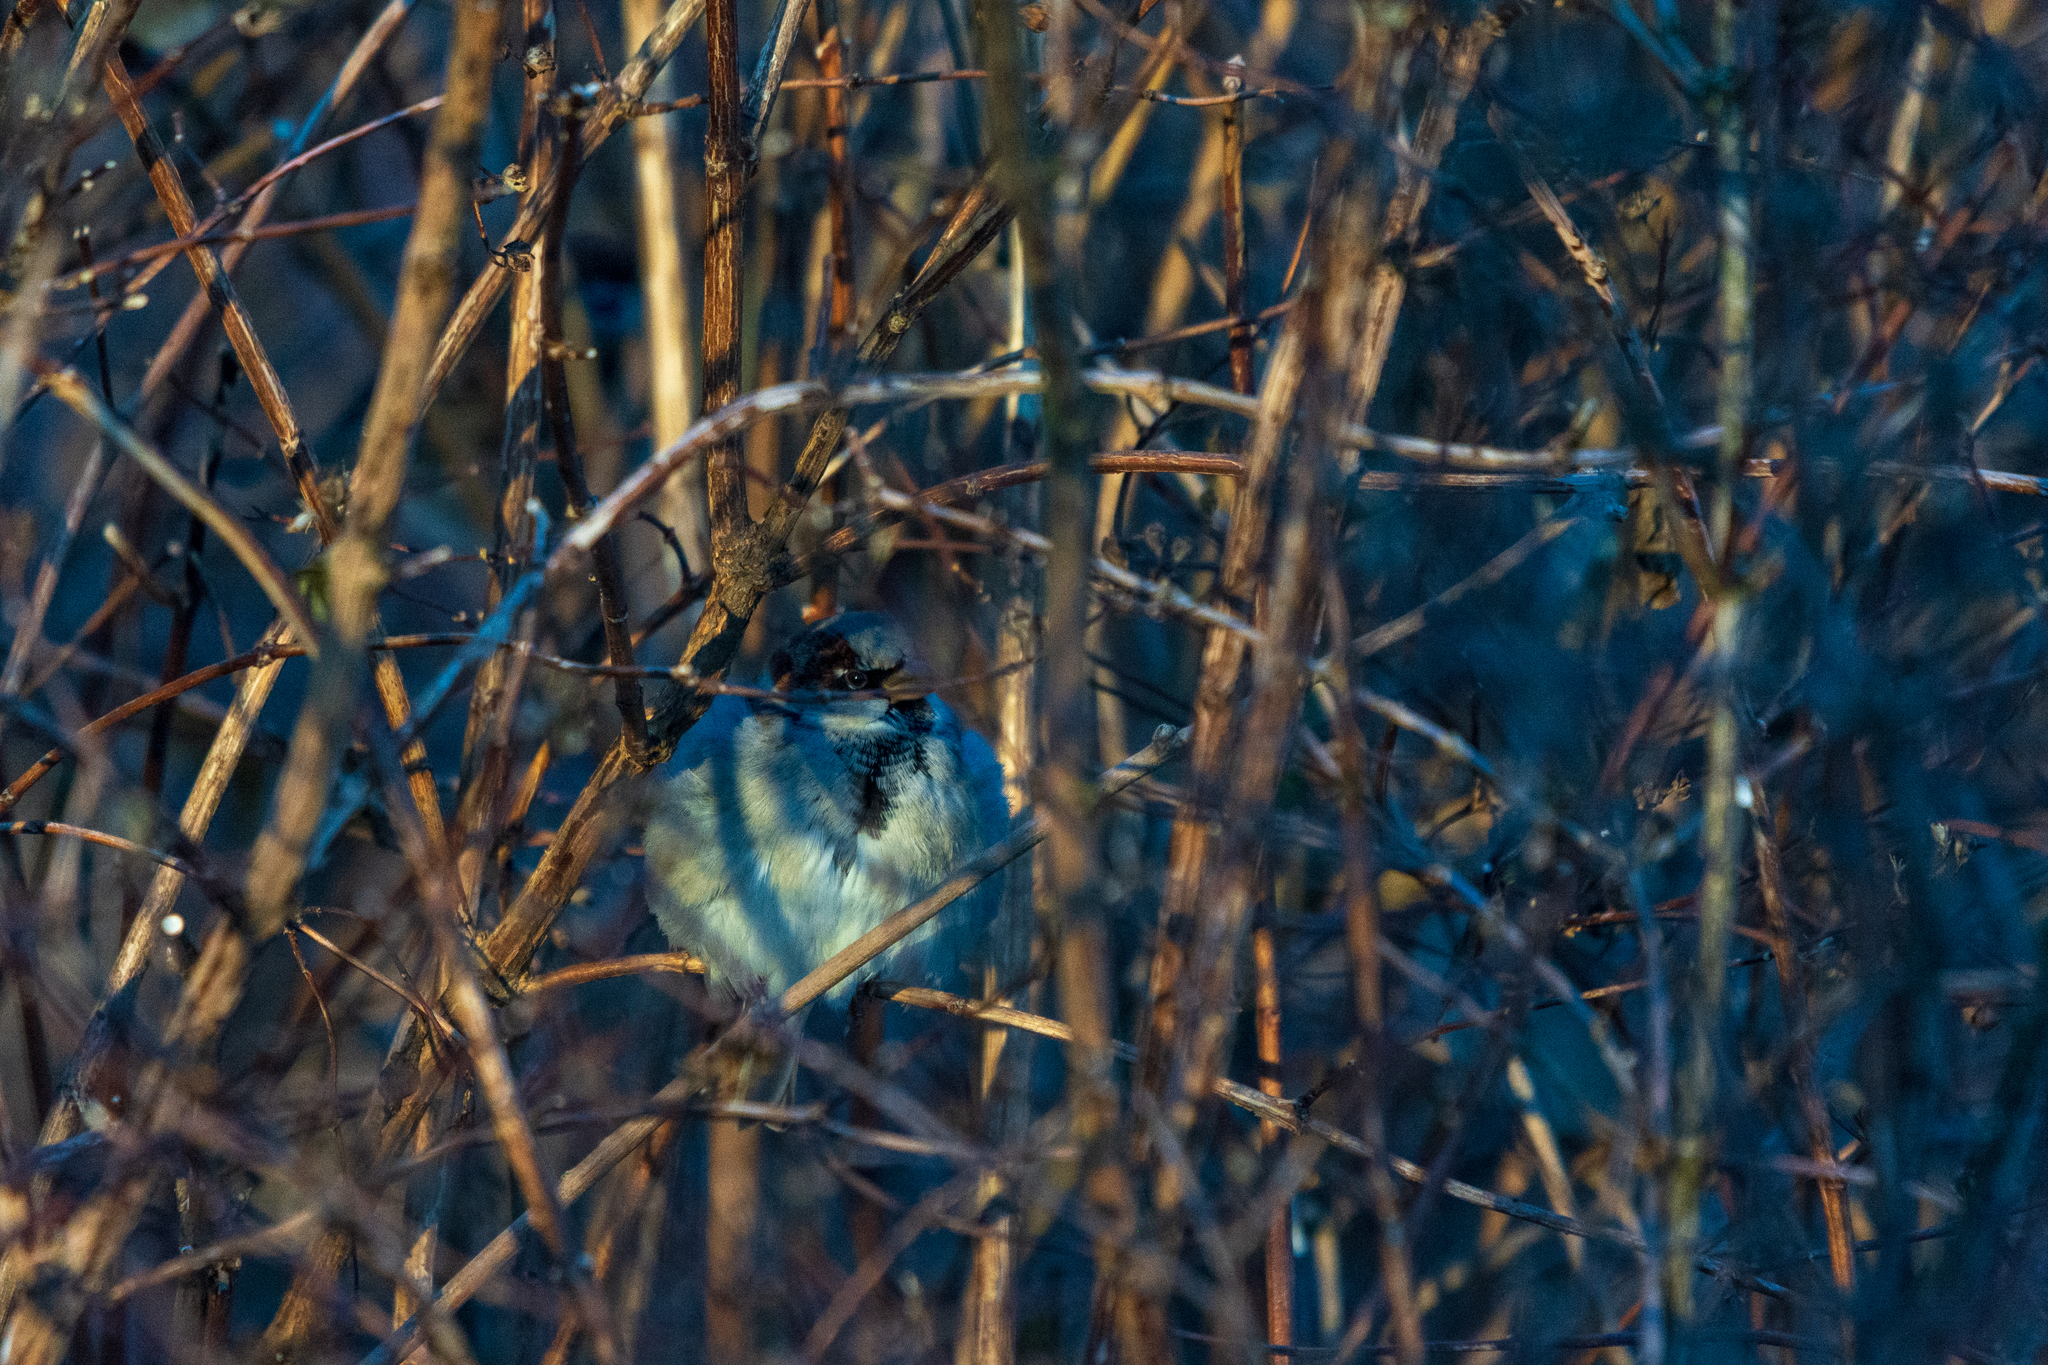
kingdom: Animalia
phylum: Chordata
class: Aves
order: Passeriformes
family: Passeridae
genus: Passer
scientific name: Passer domesticus
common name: House sparrow
